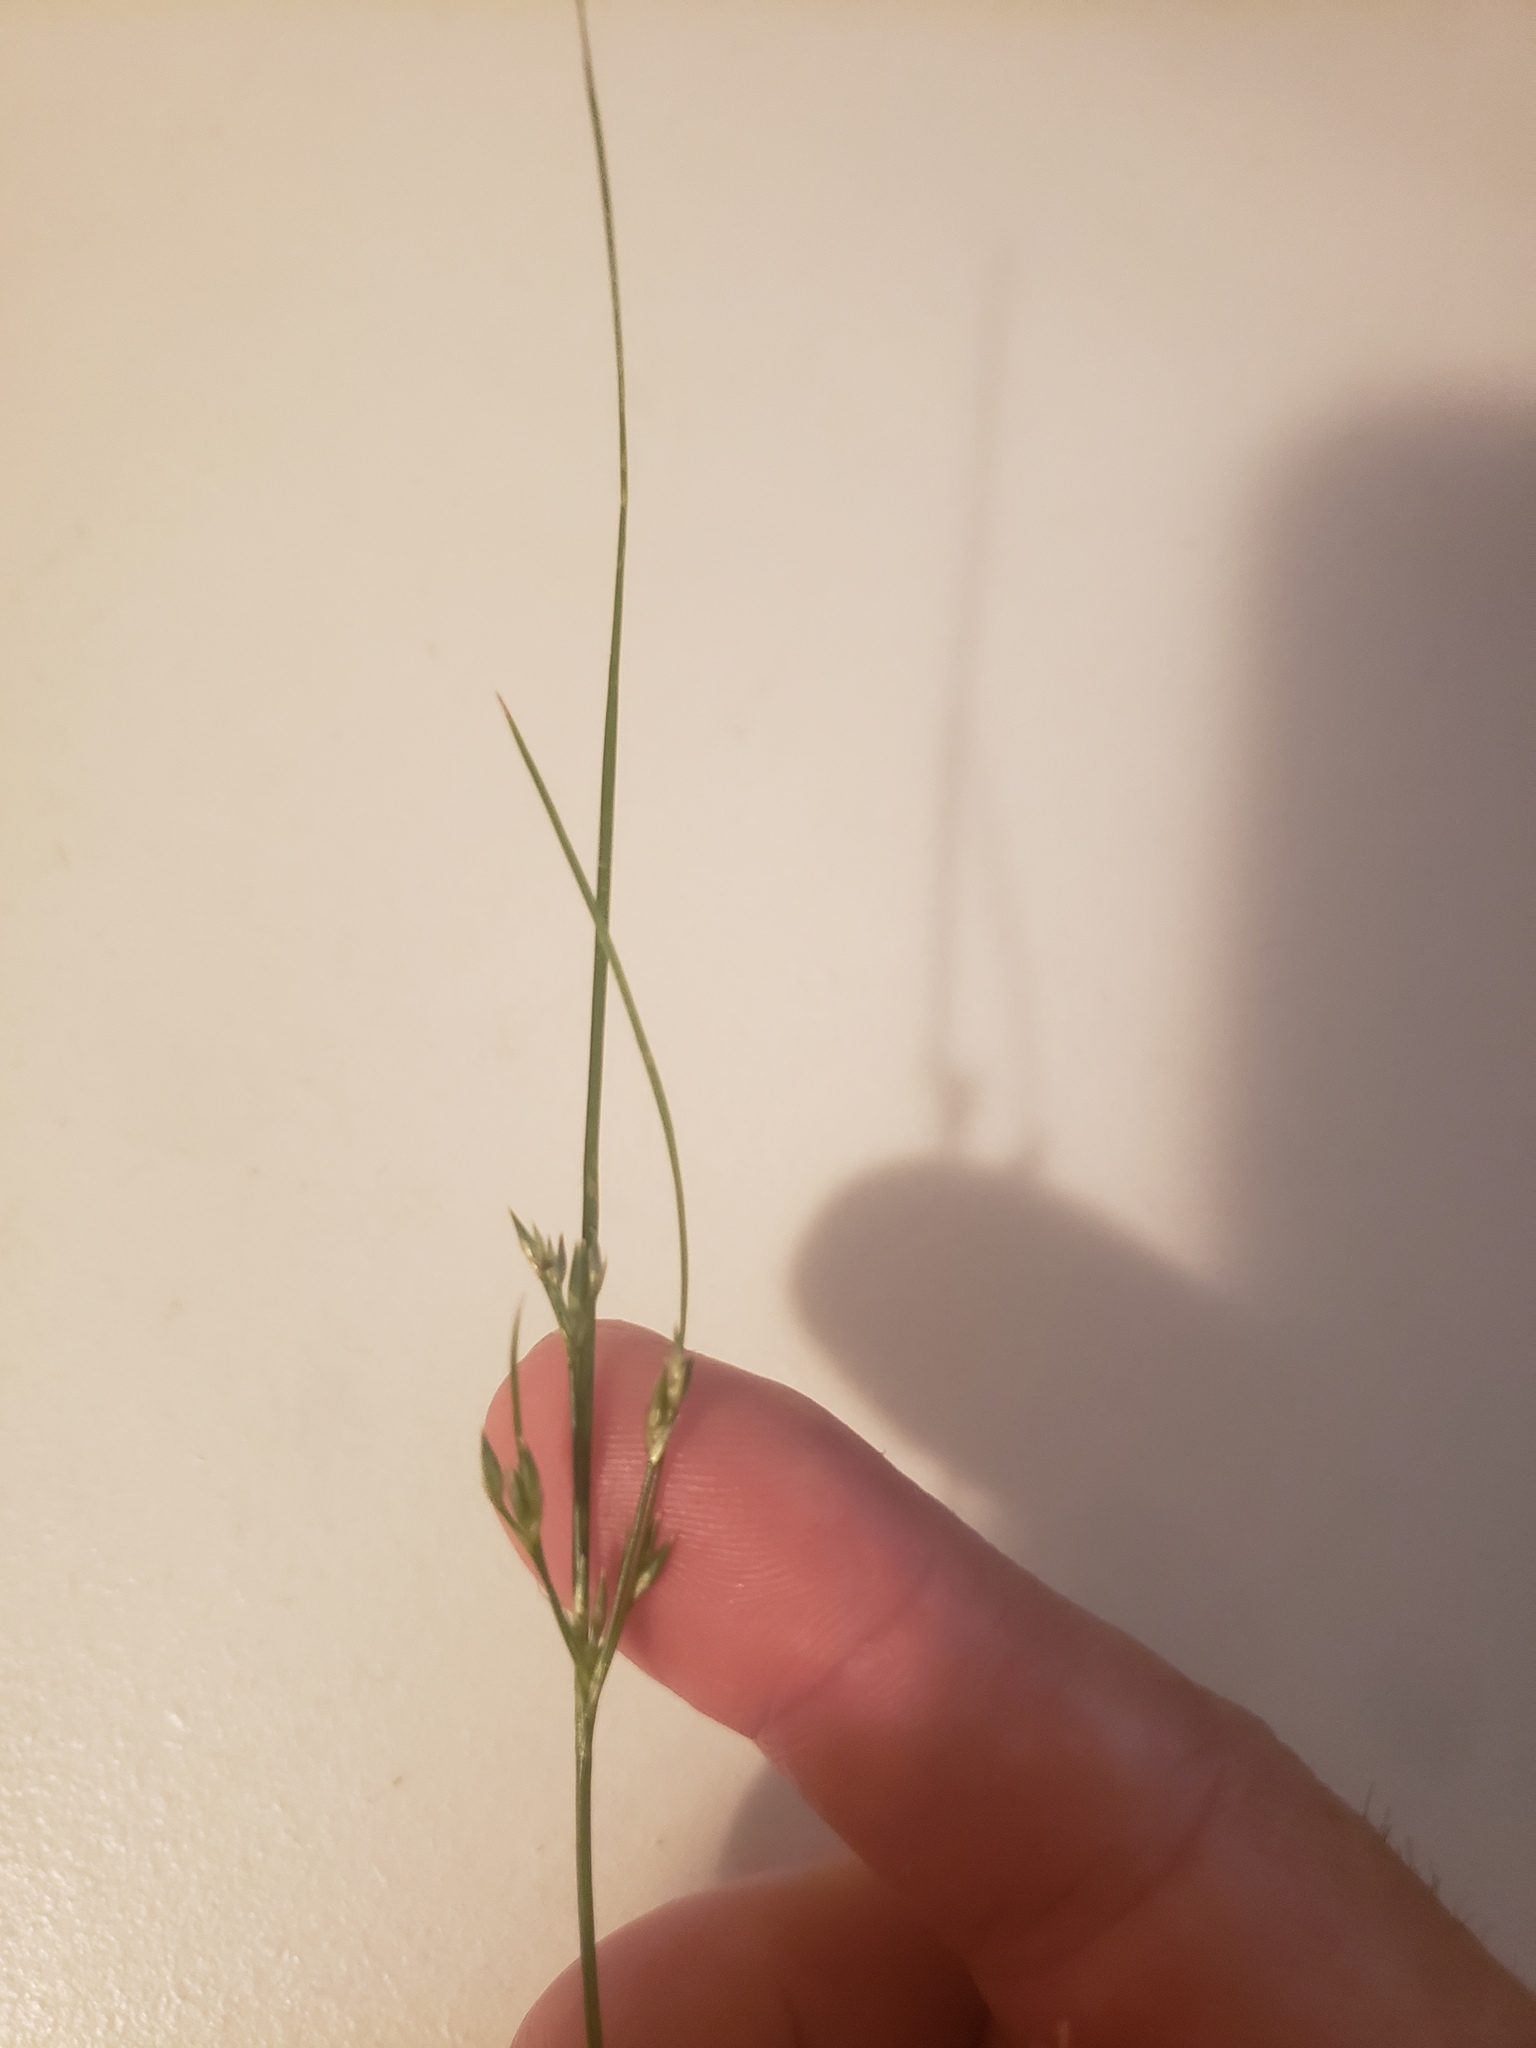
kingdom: Plantae
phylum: Tracheophyta
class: Liliopsida
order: Poales
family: Juncaceae
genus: Juncus
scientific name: Juncus tenuis
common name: Slender rush
